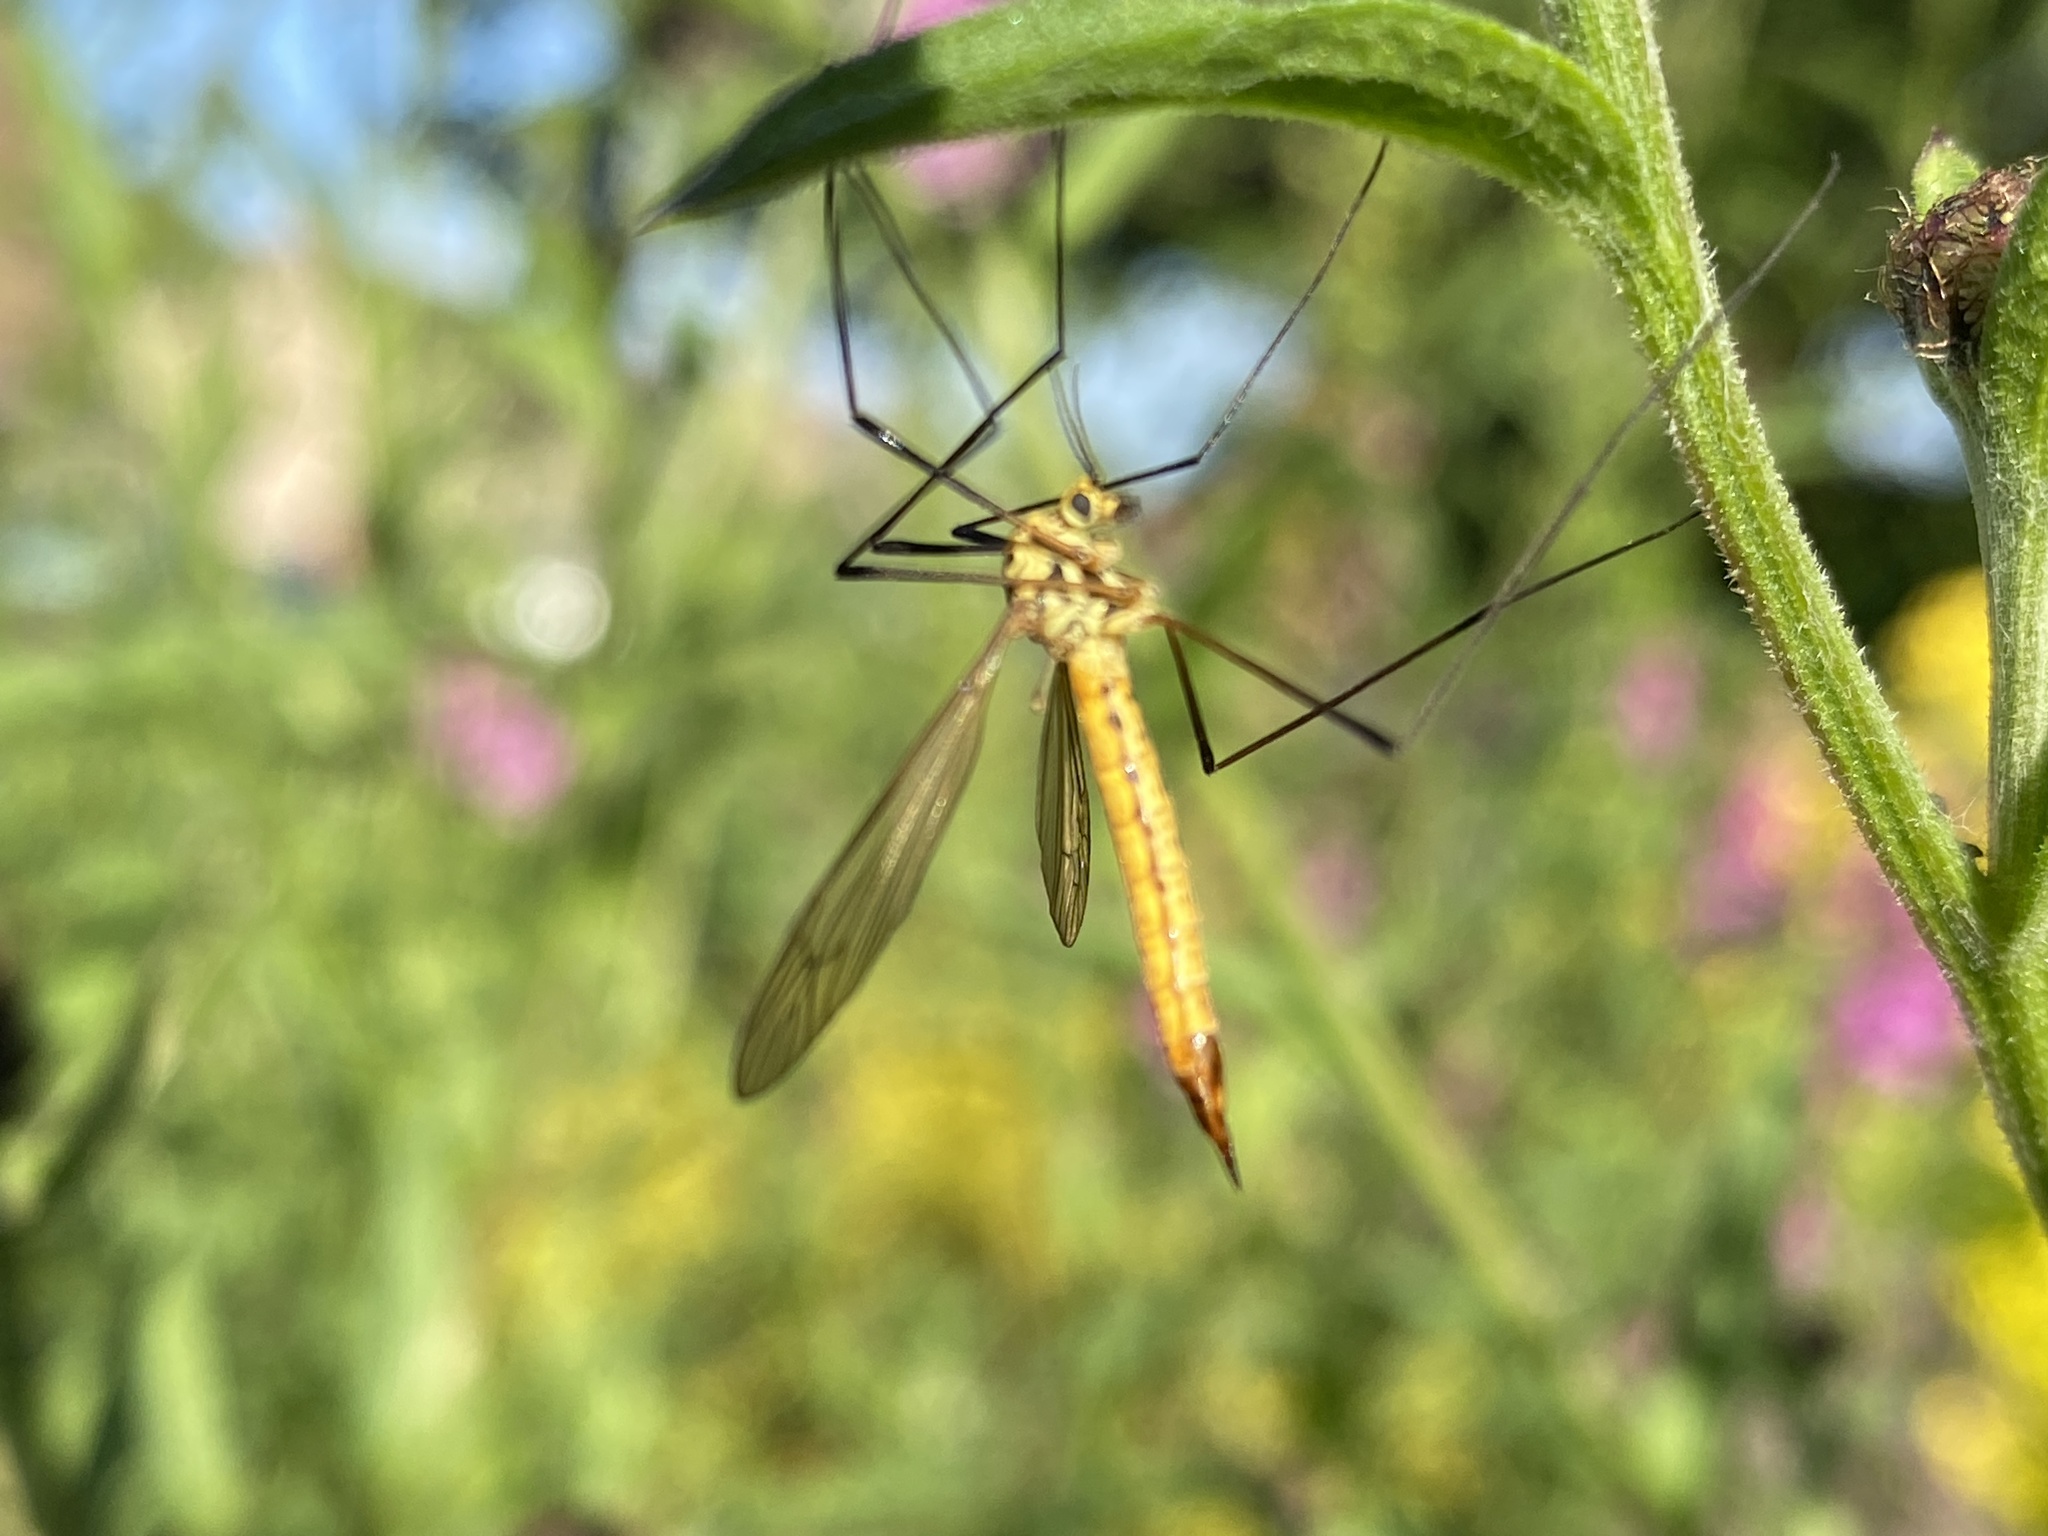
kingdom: Animalia
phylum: Arthropoda
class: Insecta
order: Diptera
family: Tipulidae
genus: Nephrotoma
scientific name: Nephrotoma flavescens
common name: Tiger cranefly
